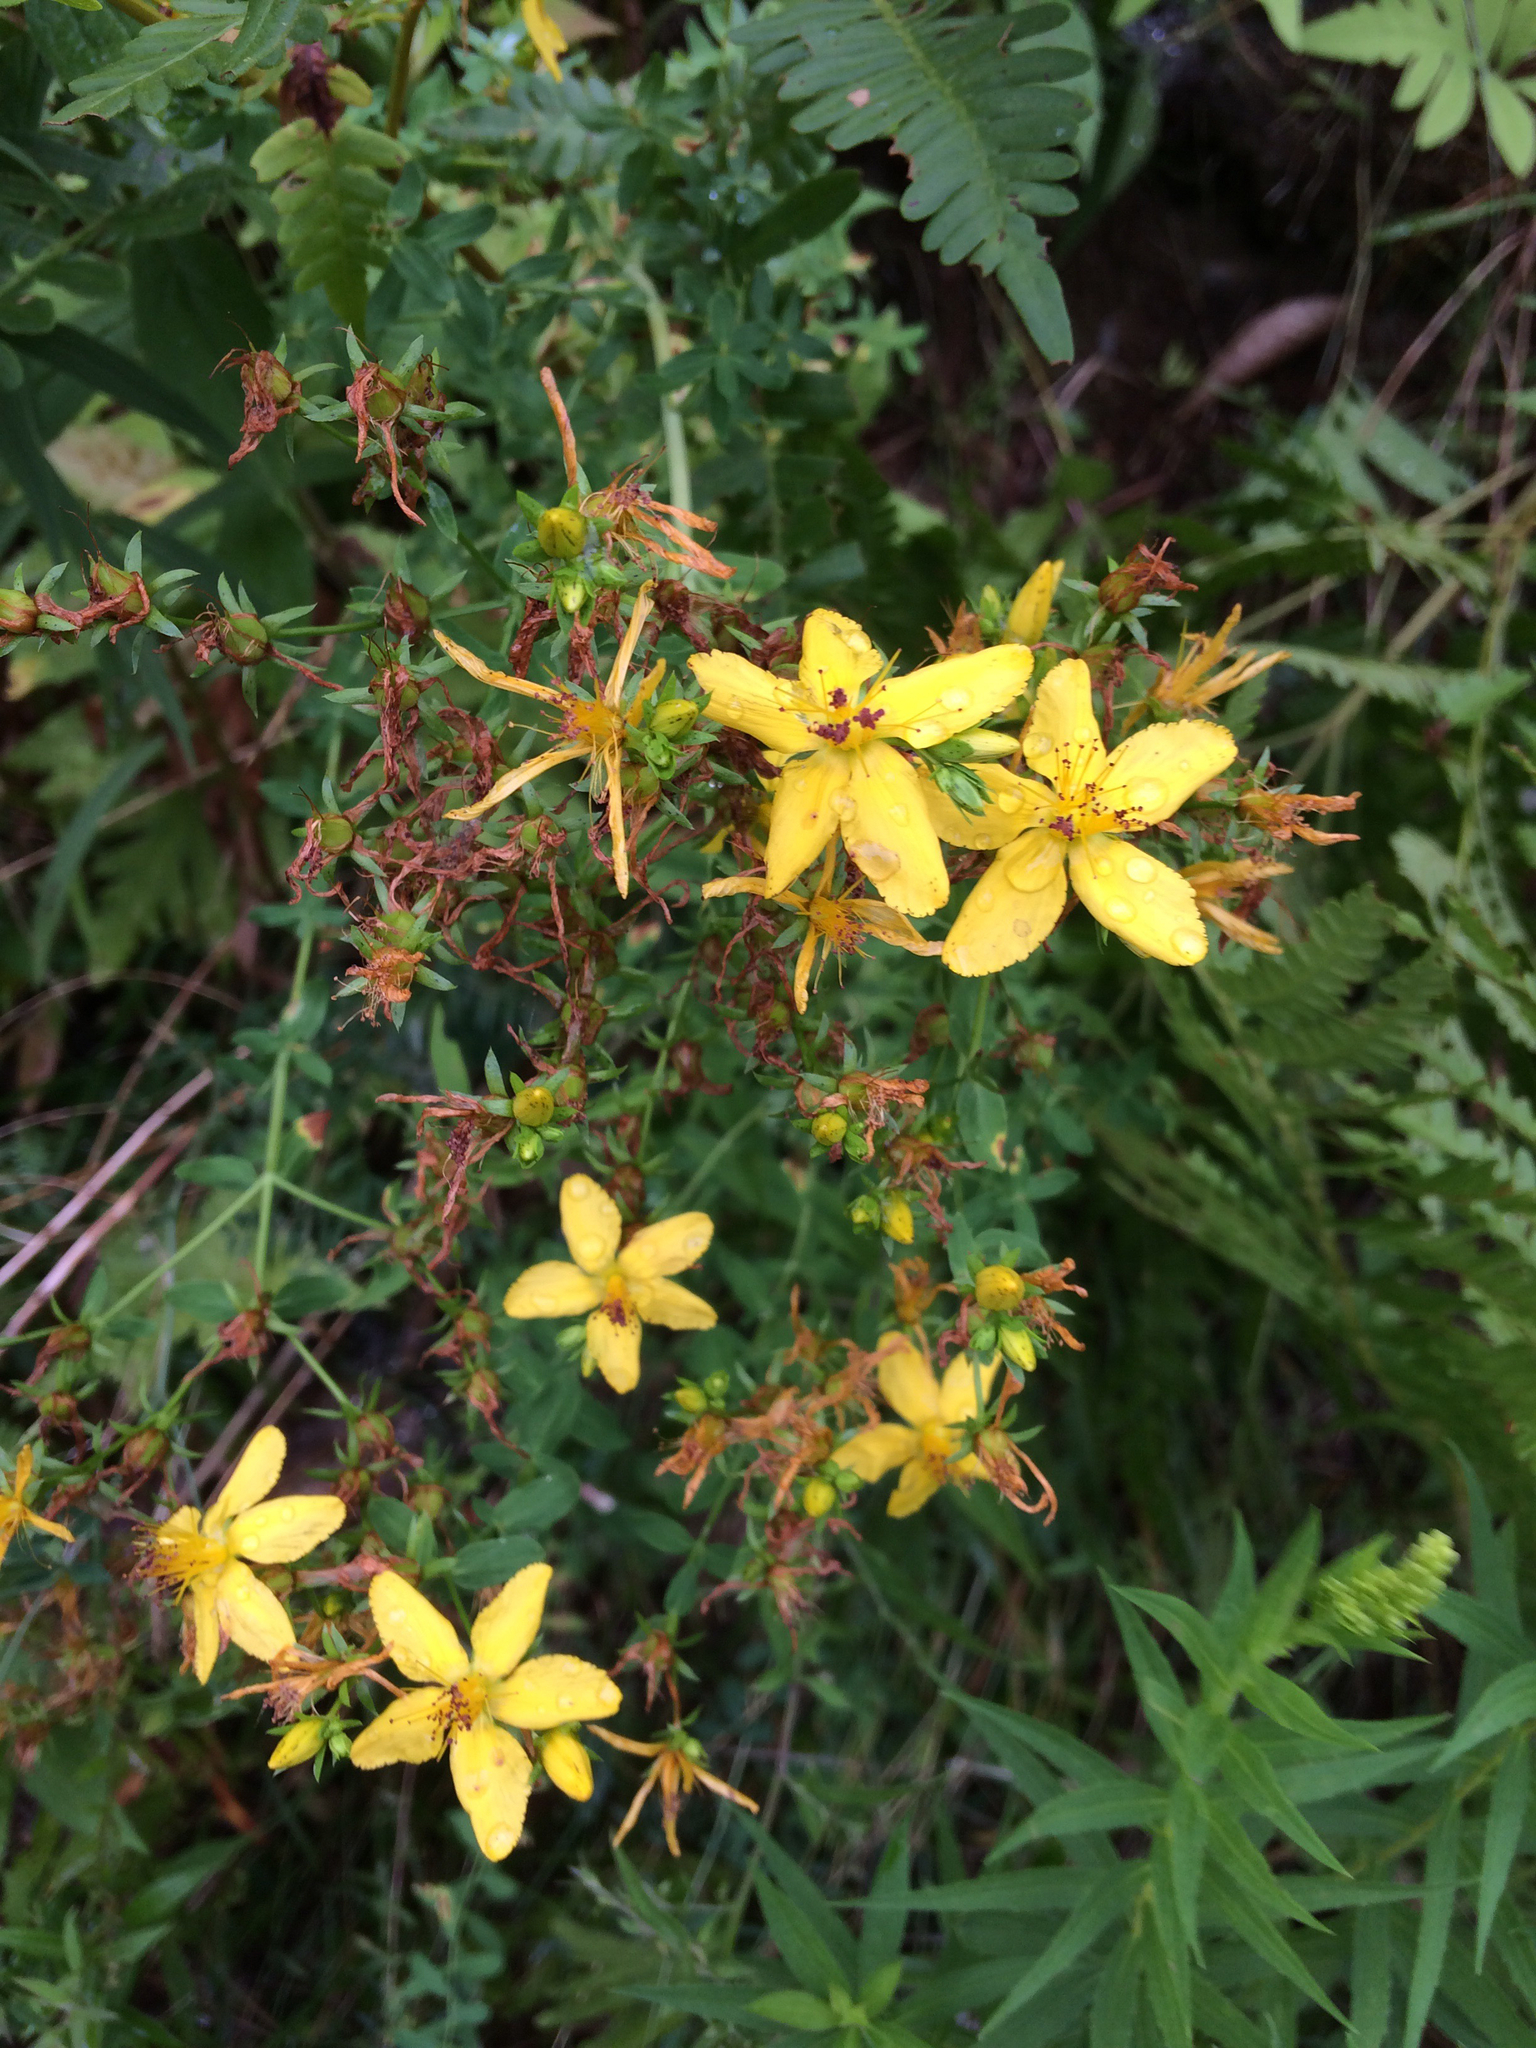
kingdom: Plantae
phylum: Tracheophyta
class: Magnoliopsida
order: Malpighiales
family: Hypericaceae
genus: Hypericum
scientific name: Hypericum perforatum
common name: Common st. johnswort
